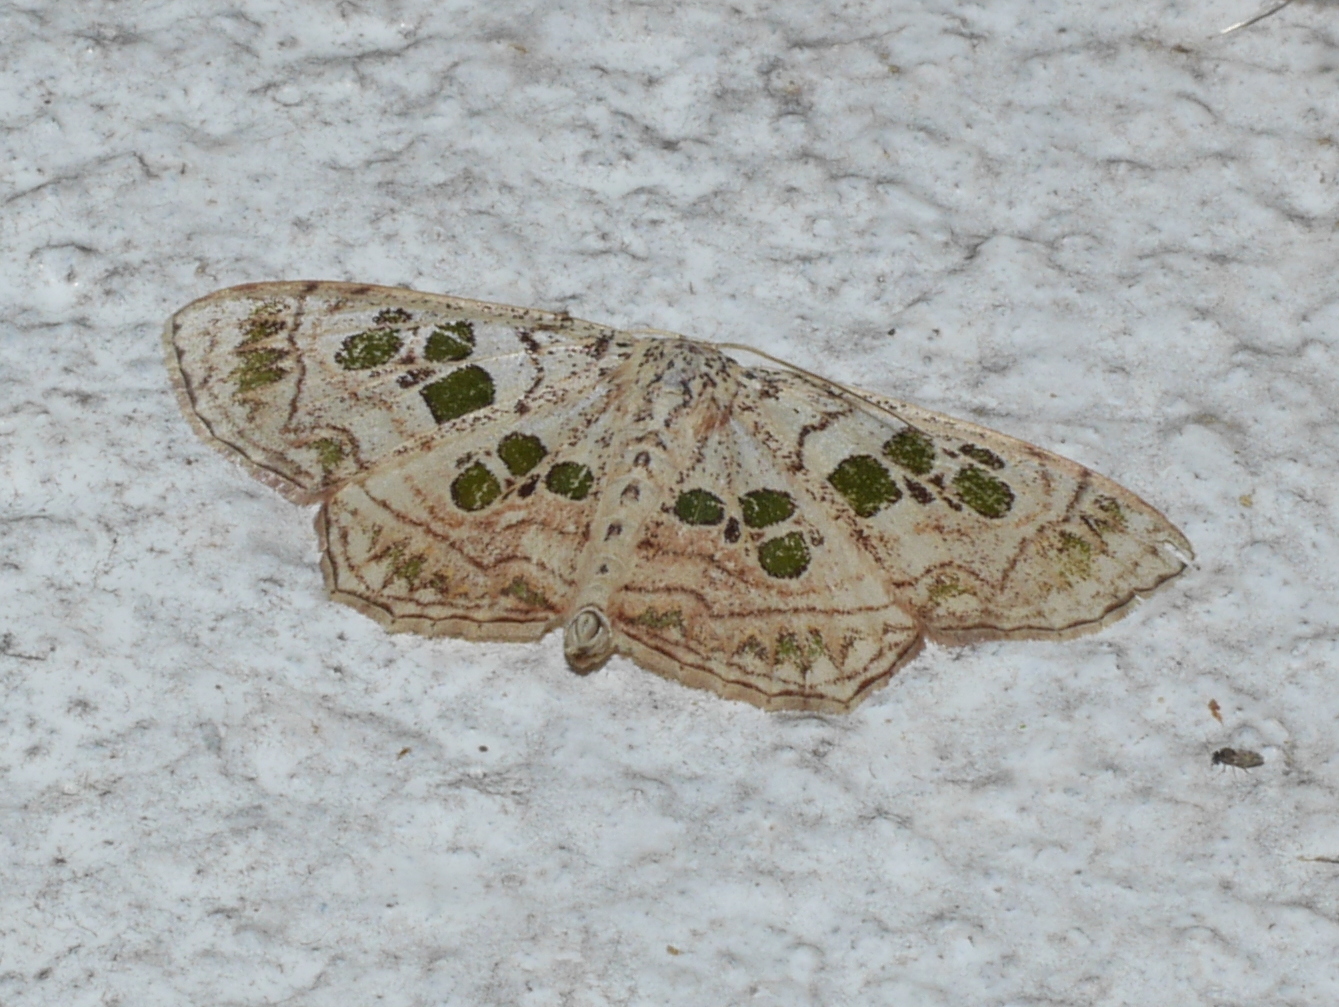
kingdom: Animalia
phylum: Arthropoda
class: Insecta
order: Lepidoptera
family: Geometridae
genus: Scopula
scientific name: Scopula
